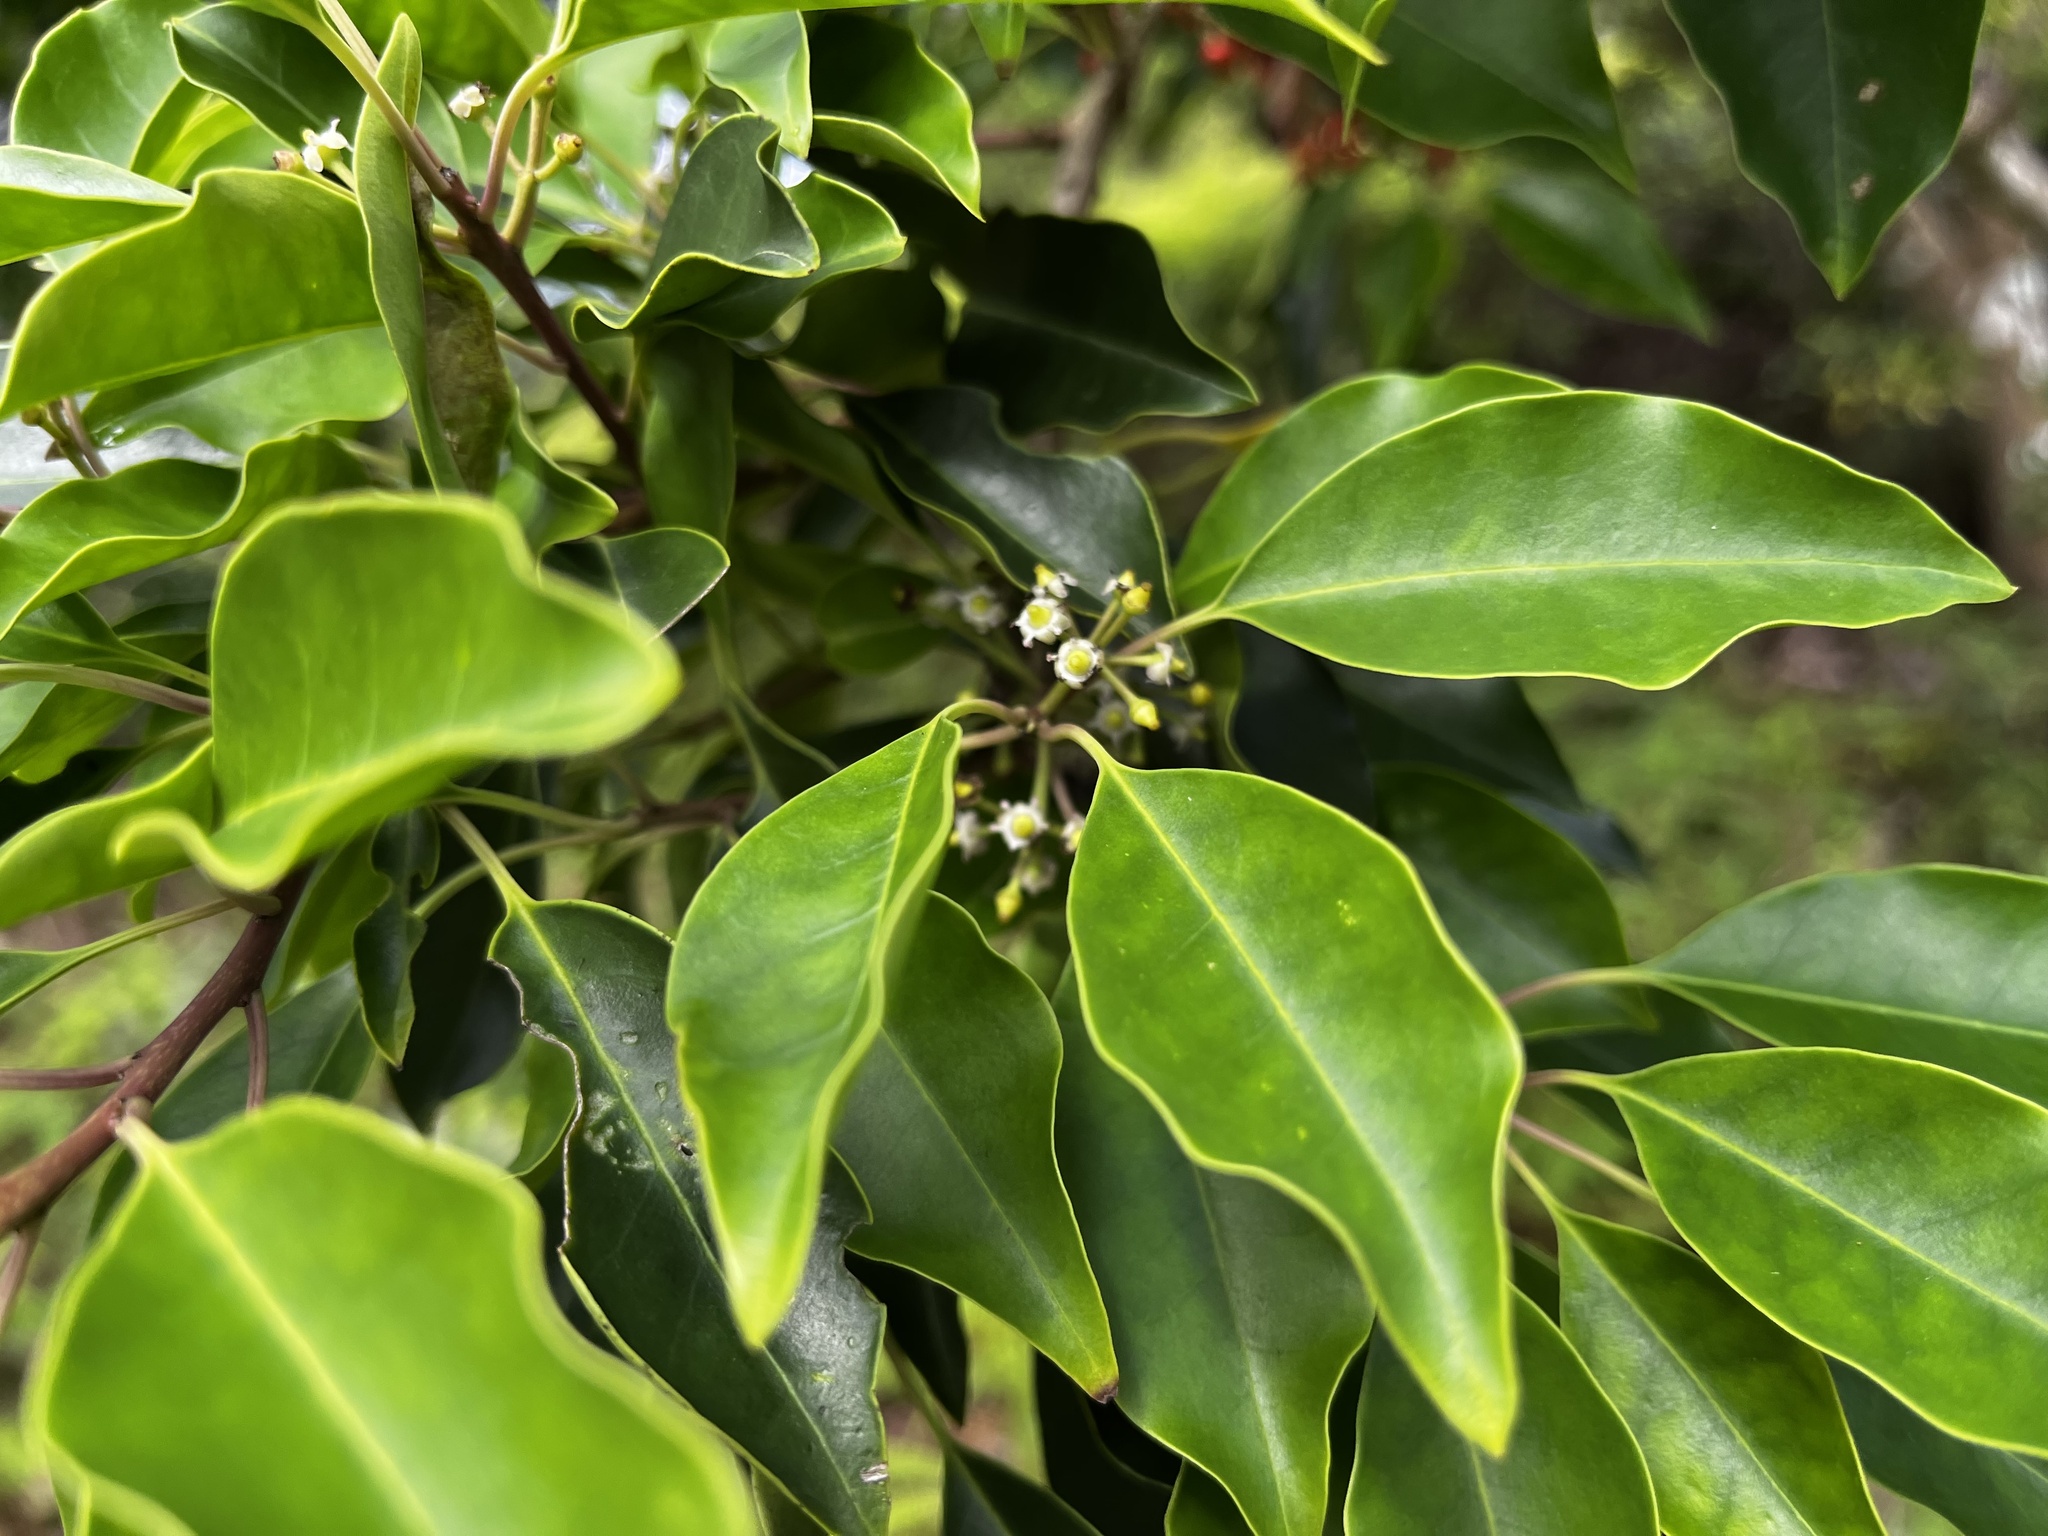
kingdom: Plantae
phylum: Tracheophyta
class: Magnoliopsida
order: Aquifoliales
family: Aquifoliaceae
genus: Ilex
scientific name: Ilex rotunda
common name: Kurogane holly
